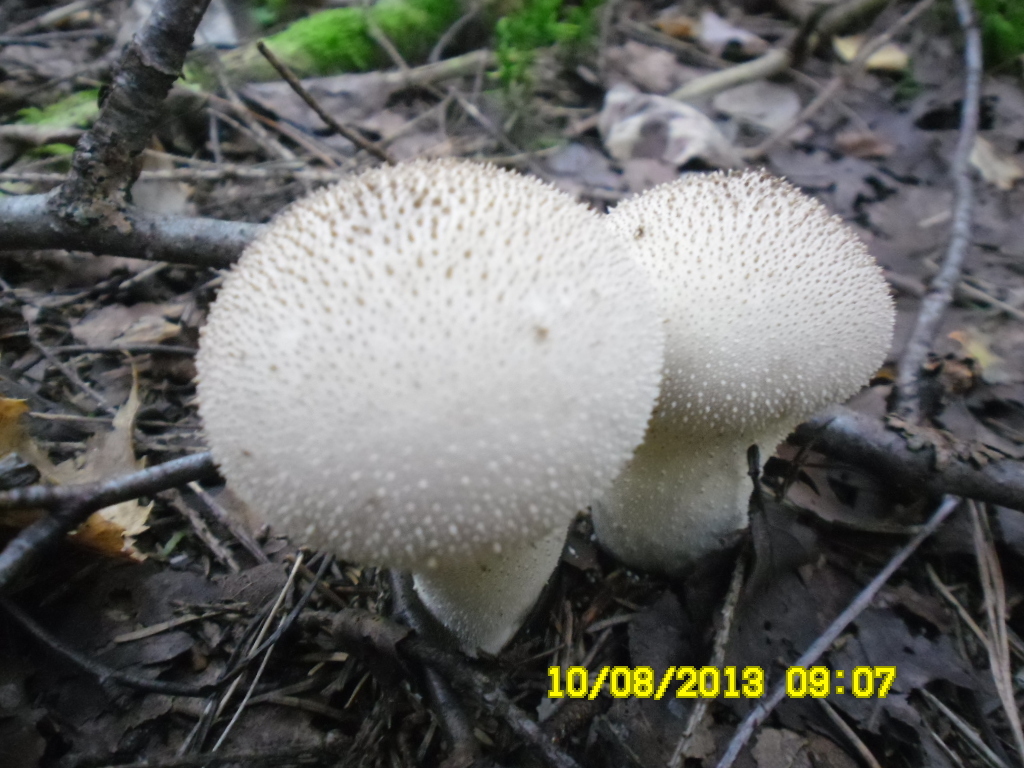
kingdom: Fungi
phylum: Basidiomycota
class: Agaricomycetes
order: Agaricales
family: Lycoperdaceae
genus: Lycoperdon
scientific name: Lycoperdon perlatum
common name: Common puffball
